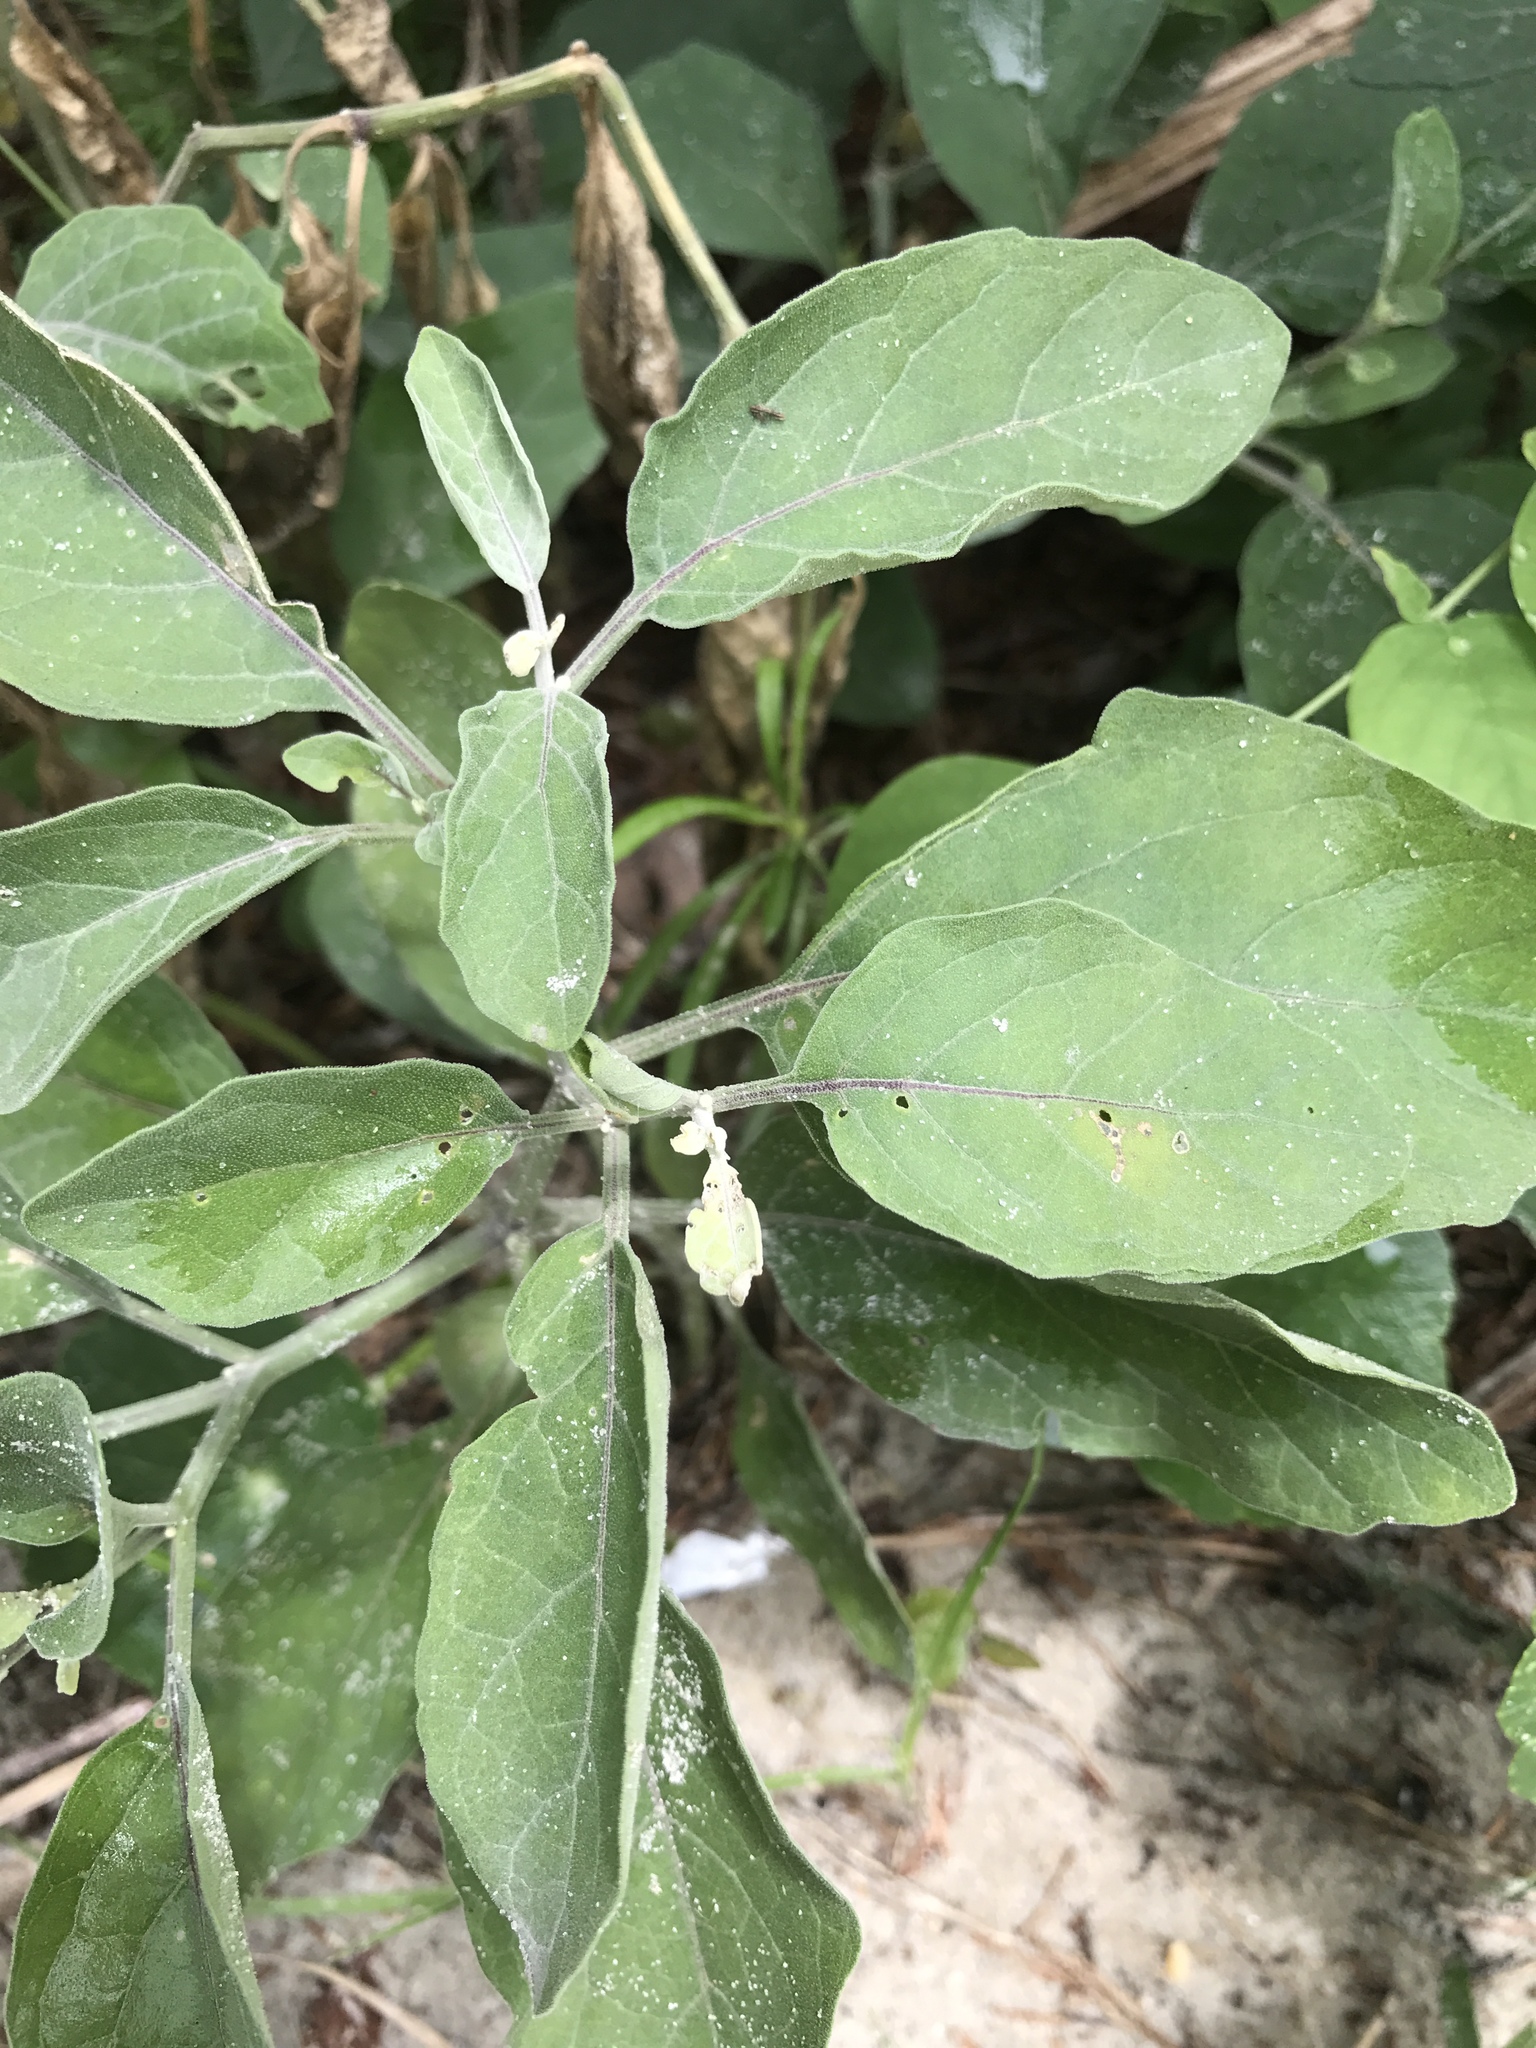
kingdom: Plantae
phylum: Tracheophyta
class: Magnoliopsida
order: Solanales
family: Solanaceae
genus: Physalis
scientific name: Physalis walteri
